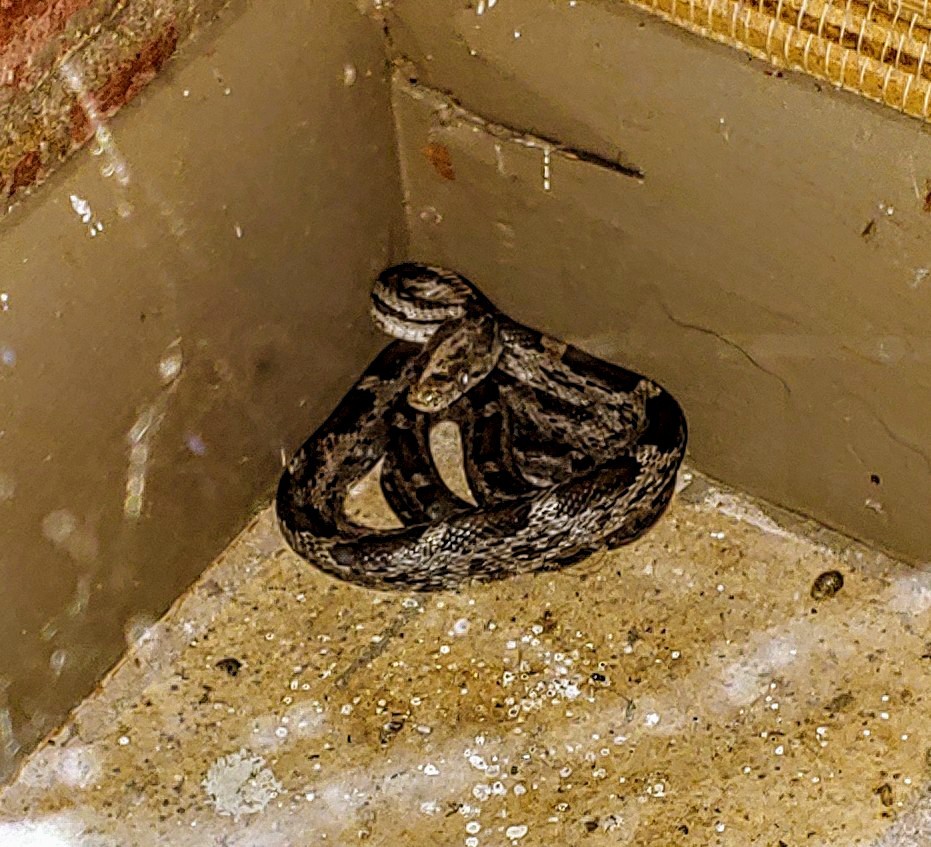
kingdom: Animalia
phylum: Chordata
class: Squamata
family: Colubridae
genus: Pantherophis
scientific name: Pantherophis alleghaniensis
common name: Eastern rat snake
